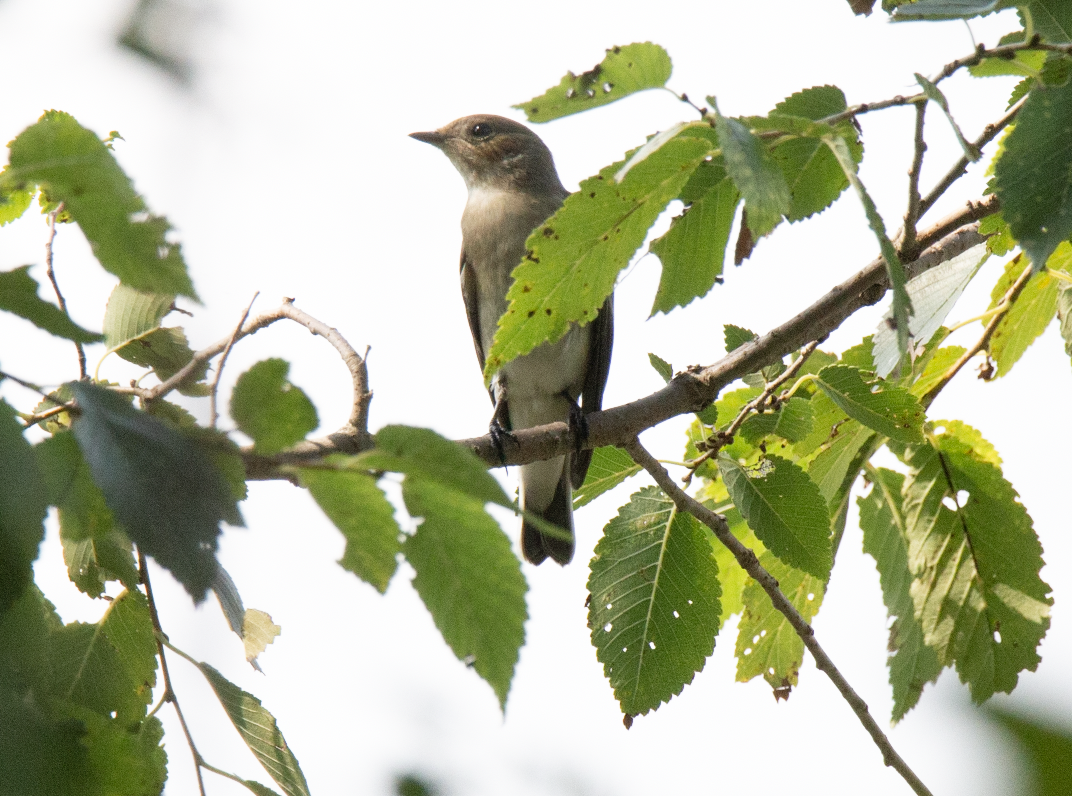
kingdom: Animalia
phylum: Chordata
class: Aves
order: Passeriformes
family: Muscicapidae
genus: Ficedula
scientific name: Ficedula hypoleuca
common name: European pied flycatcher
